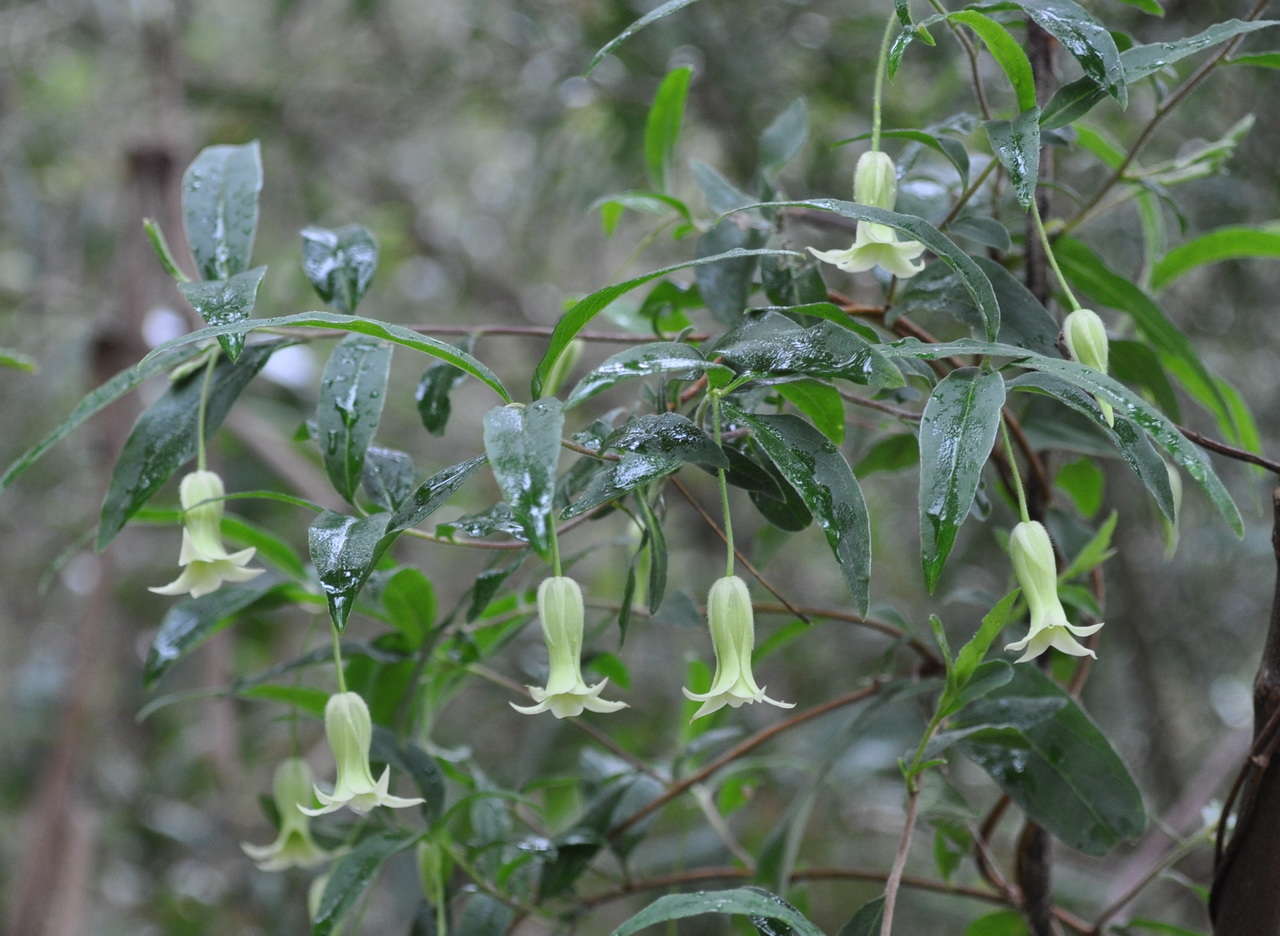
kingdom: Plantae
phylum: Tracheophyta
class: Magnoliopsida
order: Apiales
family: Pittosporaceae
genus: Billardiera
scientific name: Billardiera mutabilis
